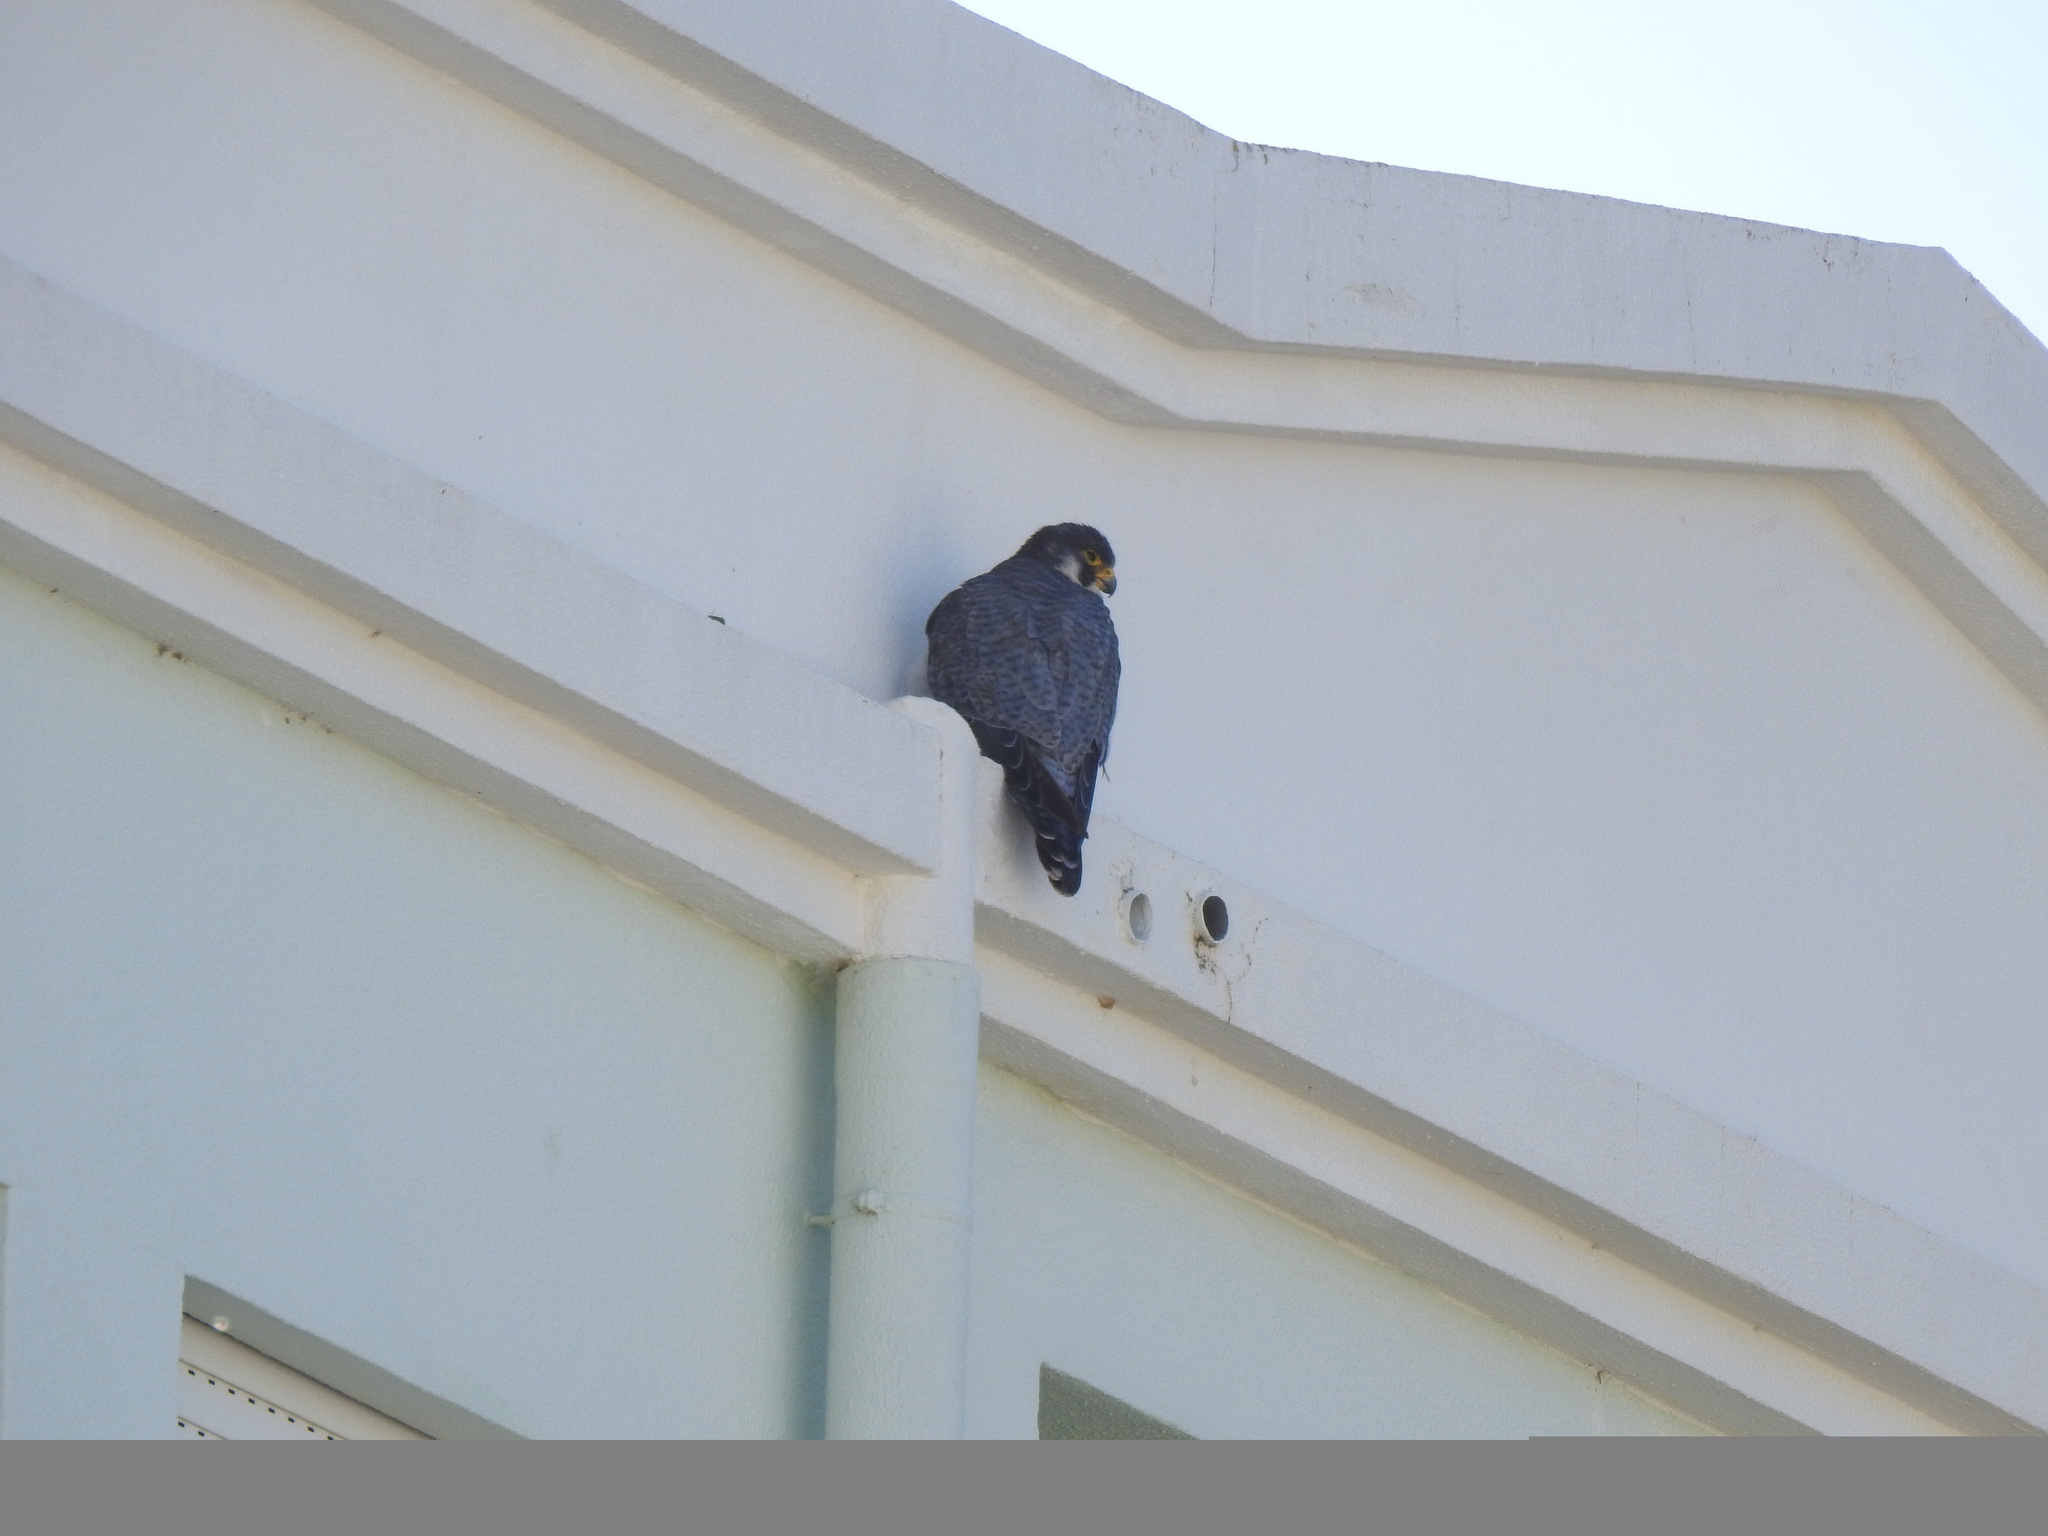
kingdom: Animalia
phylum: Chordata
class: Aves
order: Falconiformes
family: Falconidae
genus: Falco
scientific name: Falco peregrinus
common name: Peregrine falcon
